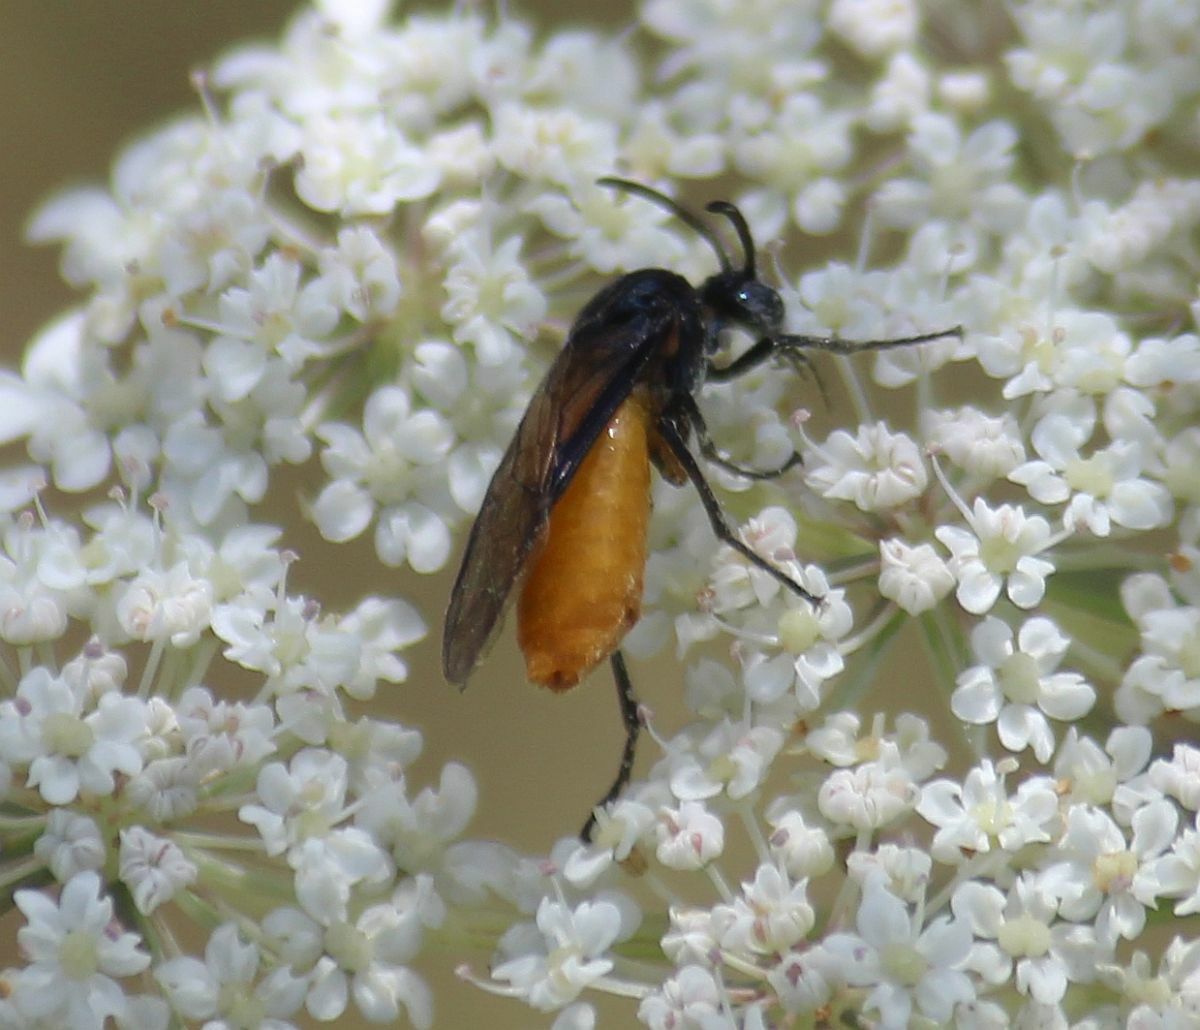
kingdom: Animalia
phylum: Arthropoda
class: Insecta
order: Hymenoptera
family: Argidae
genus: Arge
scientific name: Arge pagana
